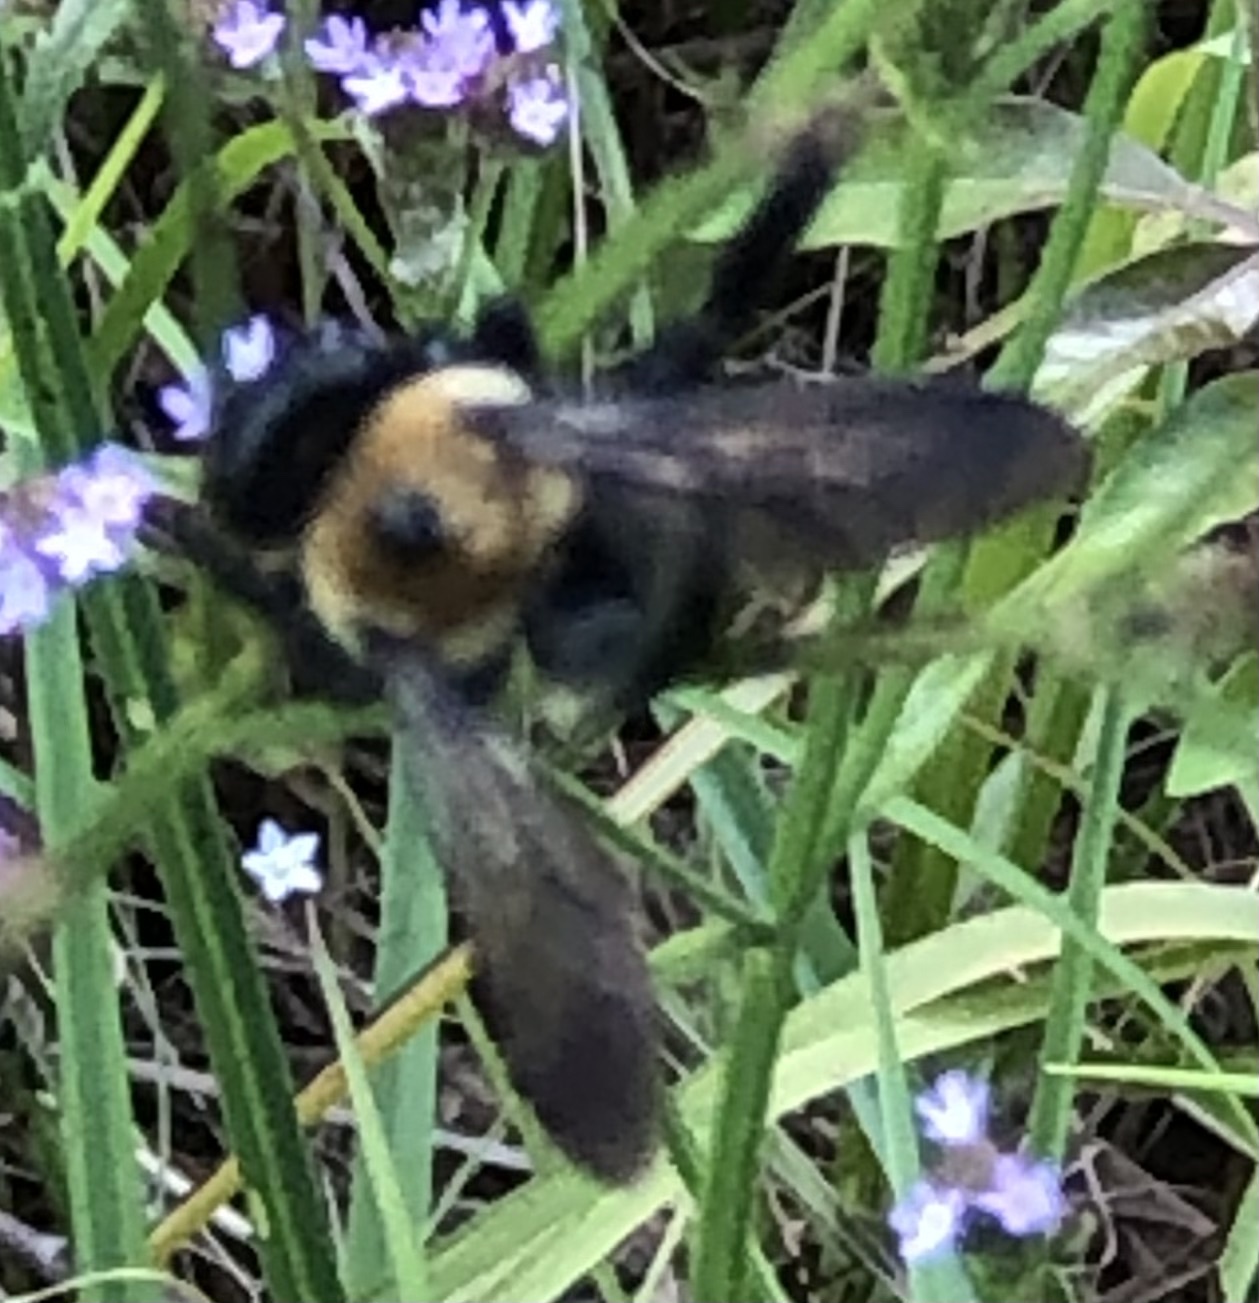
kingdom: Animalia
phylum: Arthropoda
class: Insecta
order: Hymenoptera
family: Apidae
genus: Xylocopa
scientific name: Xylocopa virginica
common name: Carpenter bee
